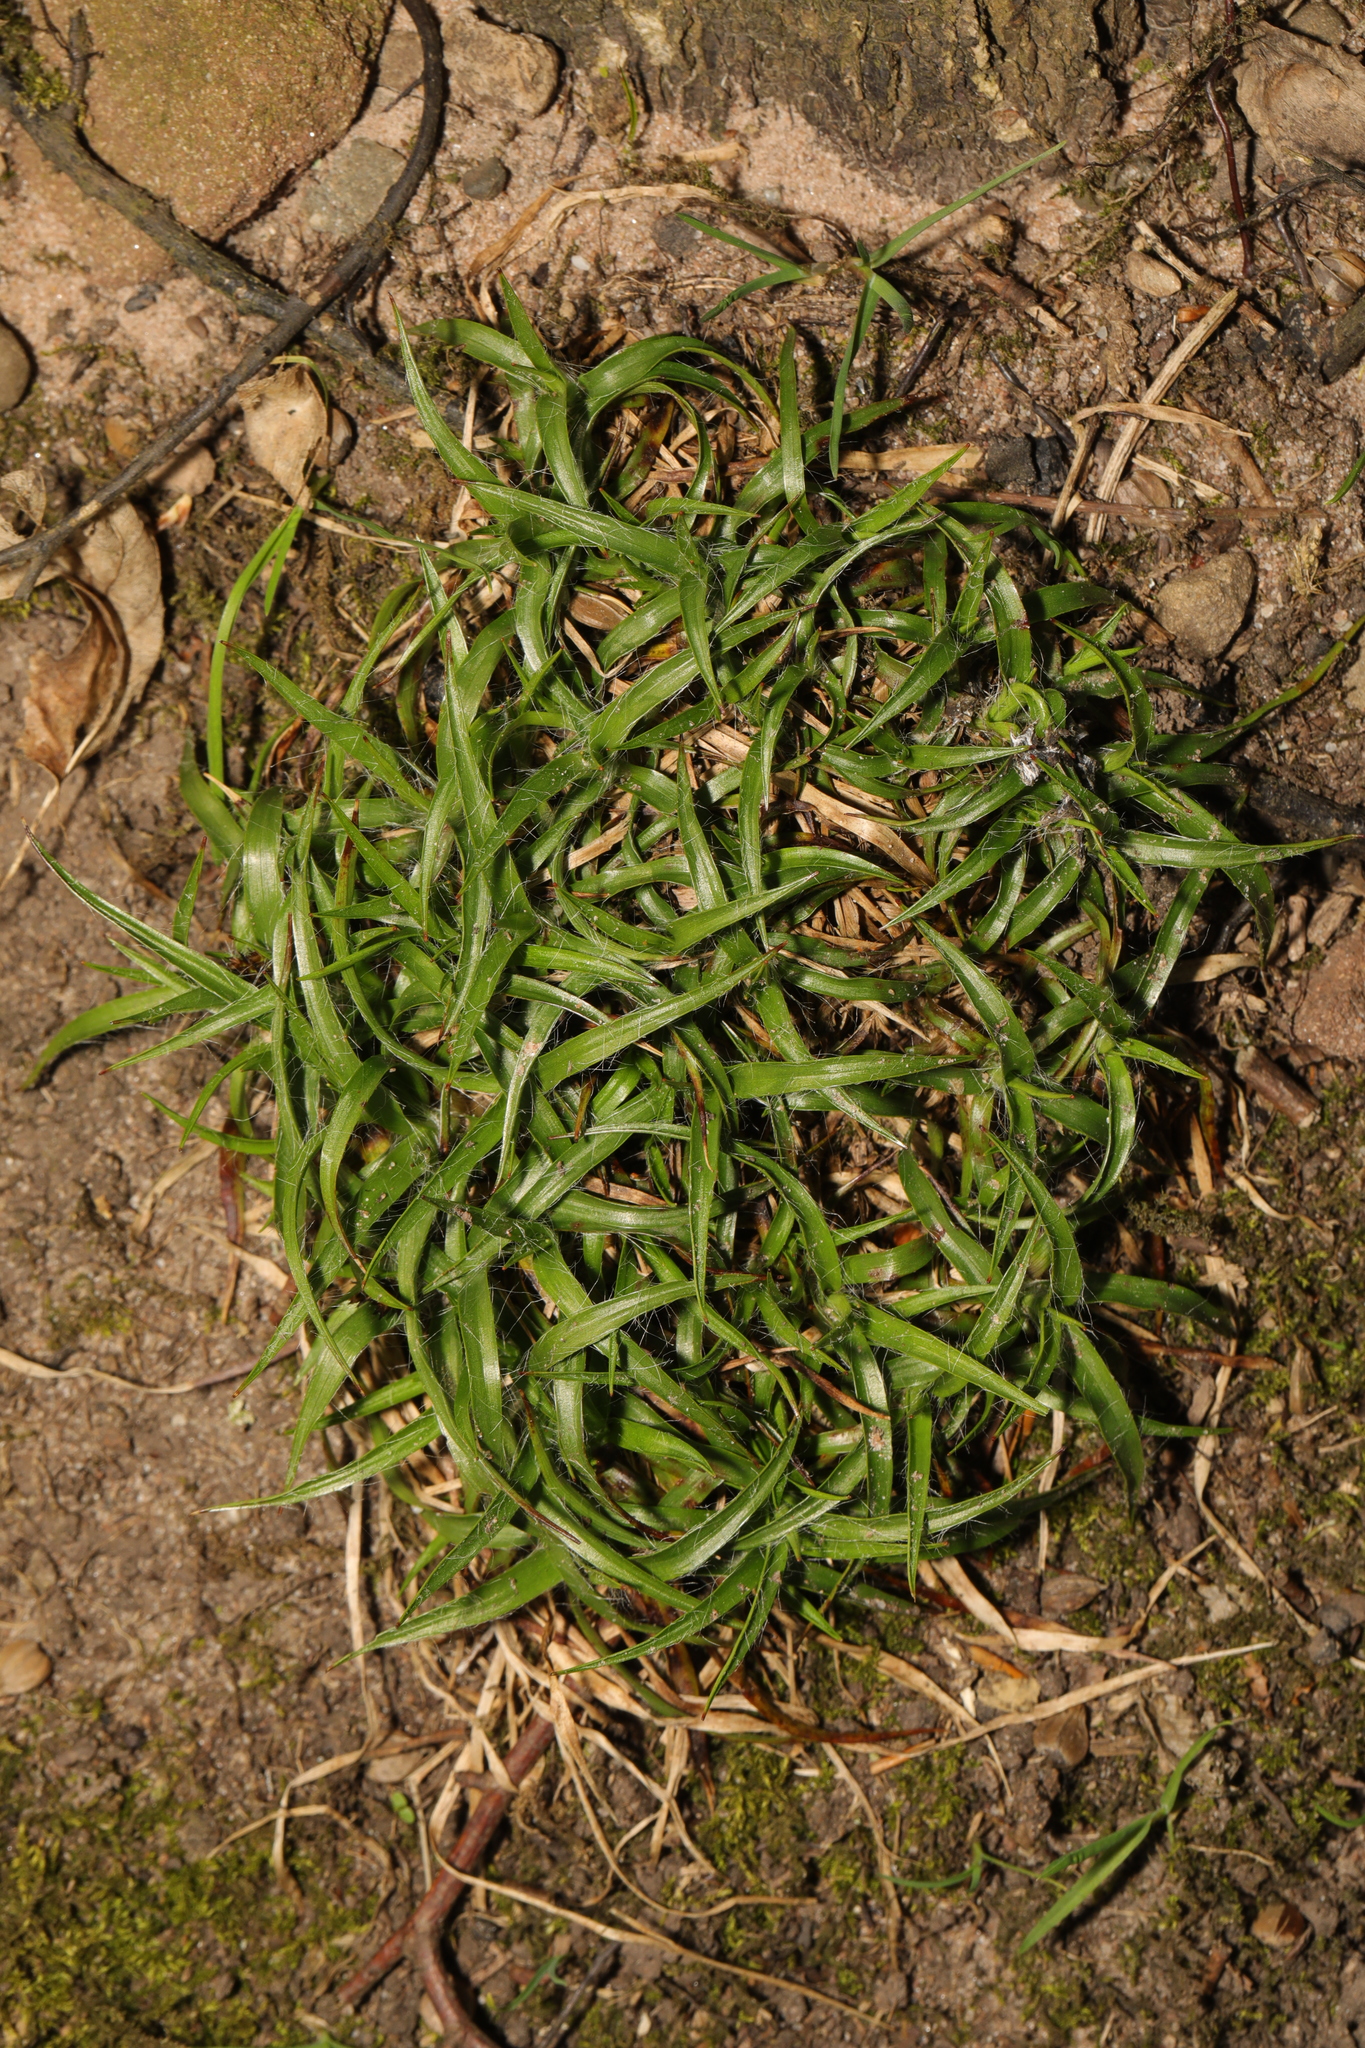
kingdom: Plantae
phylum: Tracheophyta
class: Liliopsida
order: Poales
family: Juncaceae
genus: Luzula
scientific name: Luzula campestris
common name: Field wood-rush
